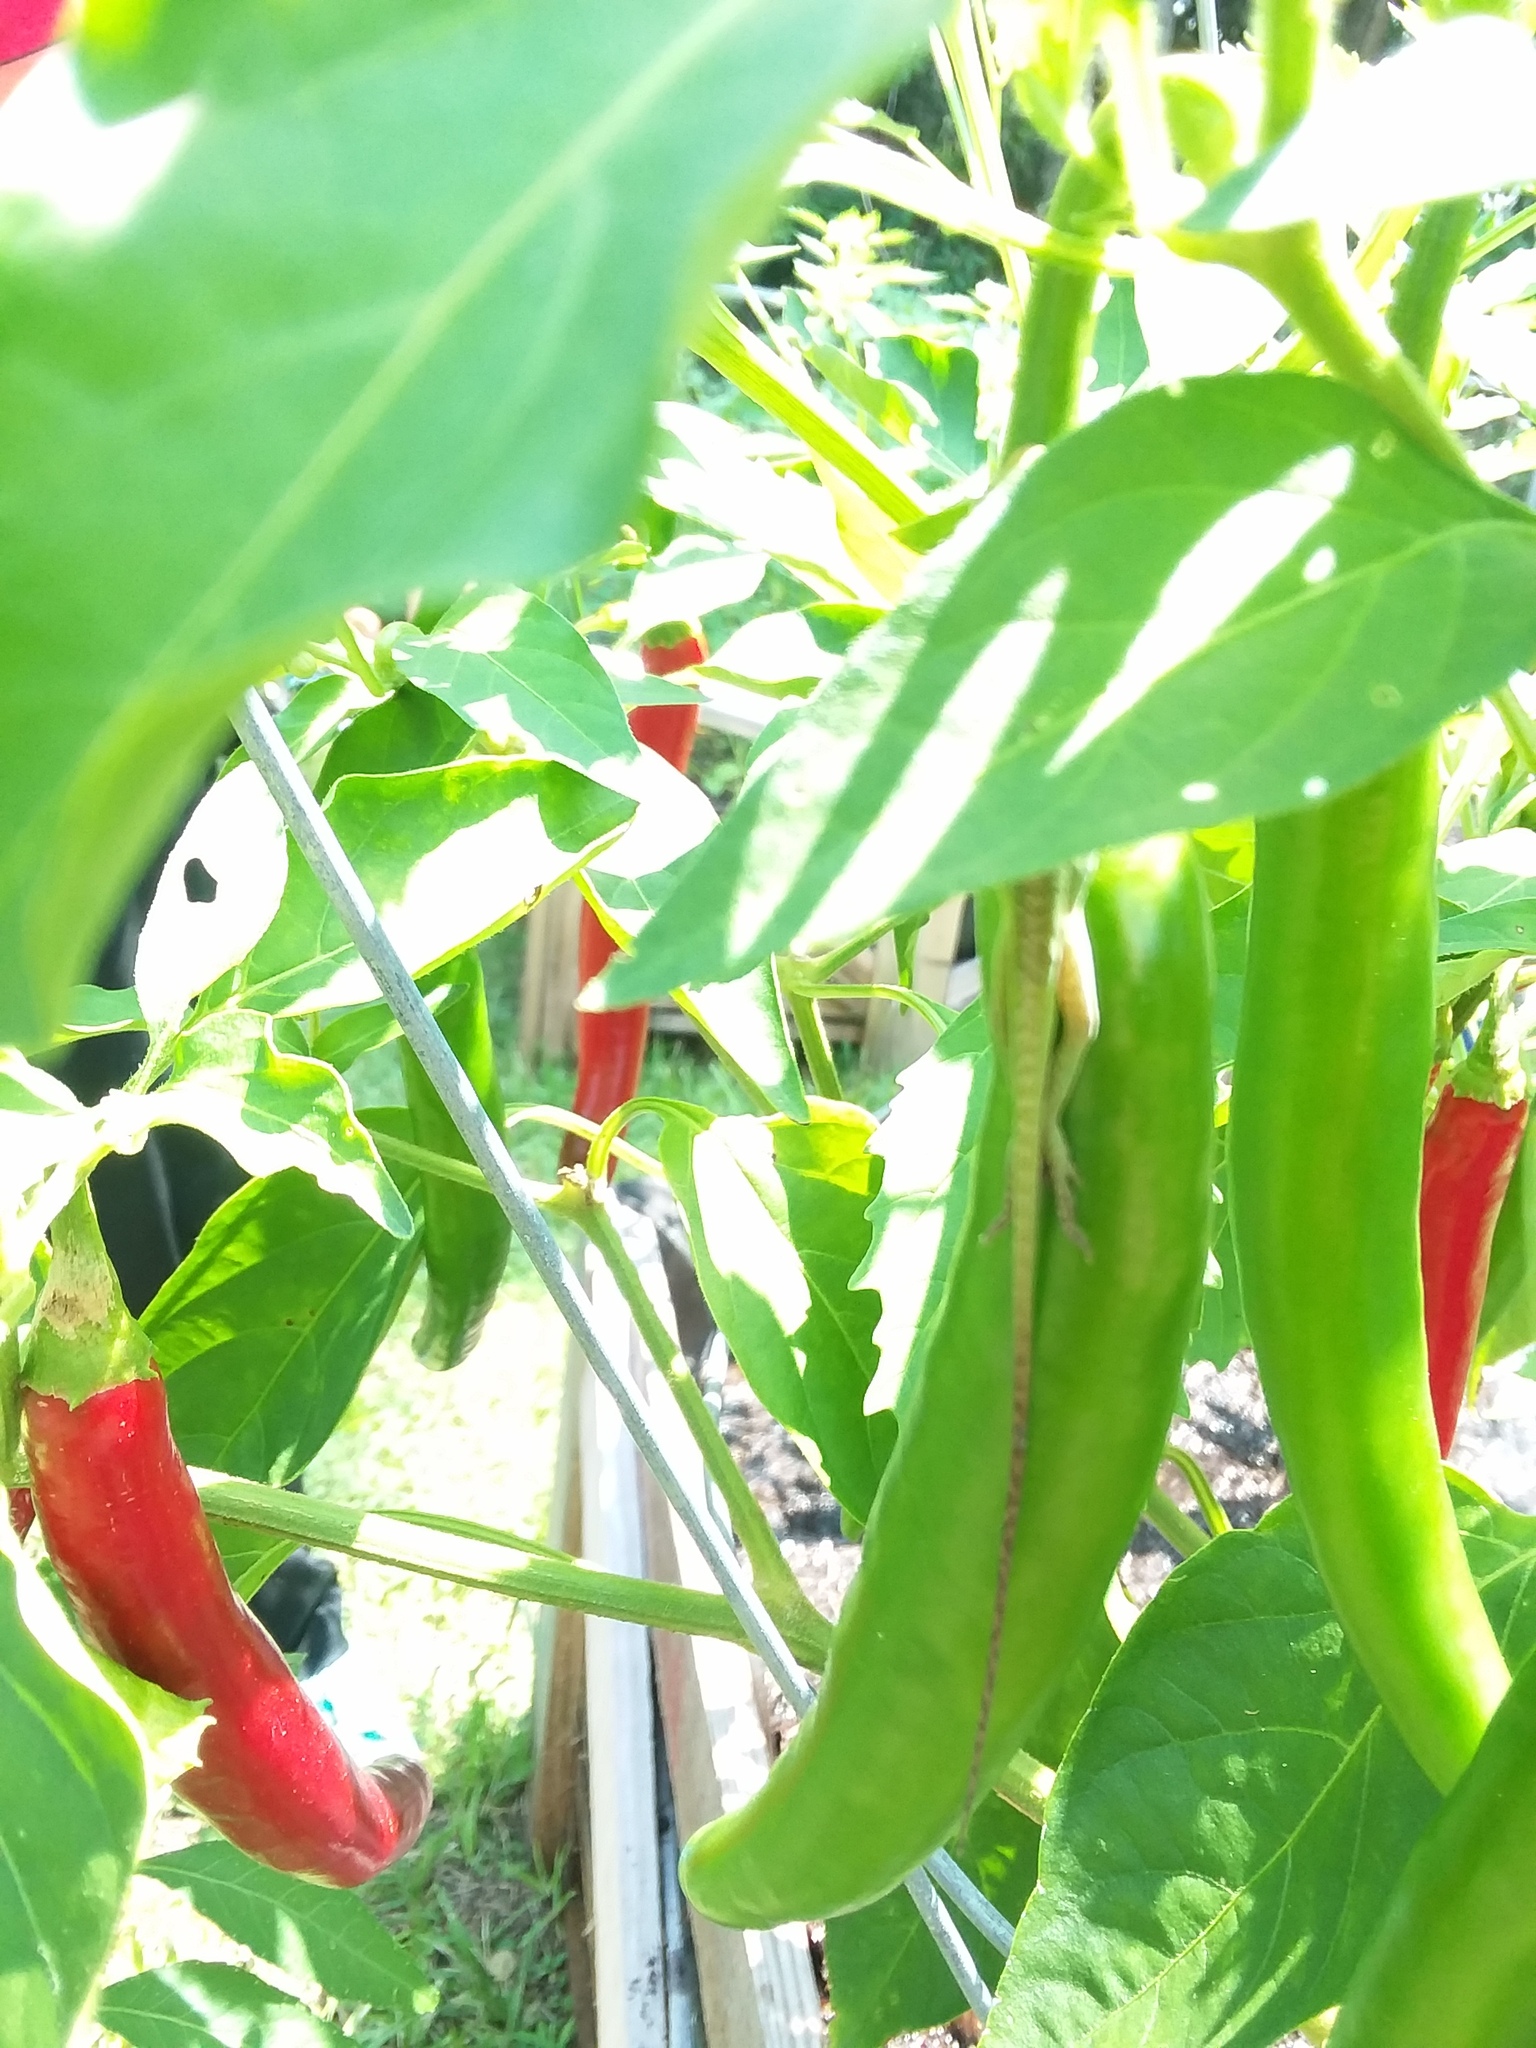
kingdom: Animalia
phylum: Chordata
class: Squamata
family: Dactyloidae
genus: Anolis
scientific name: Anolis carolinensis
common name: Green anole
